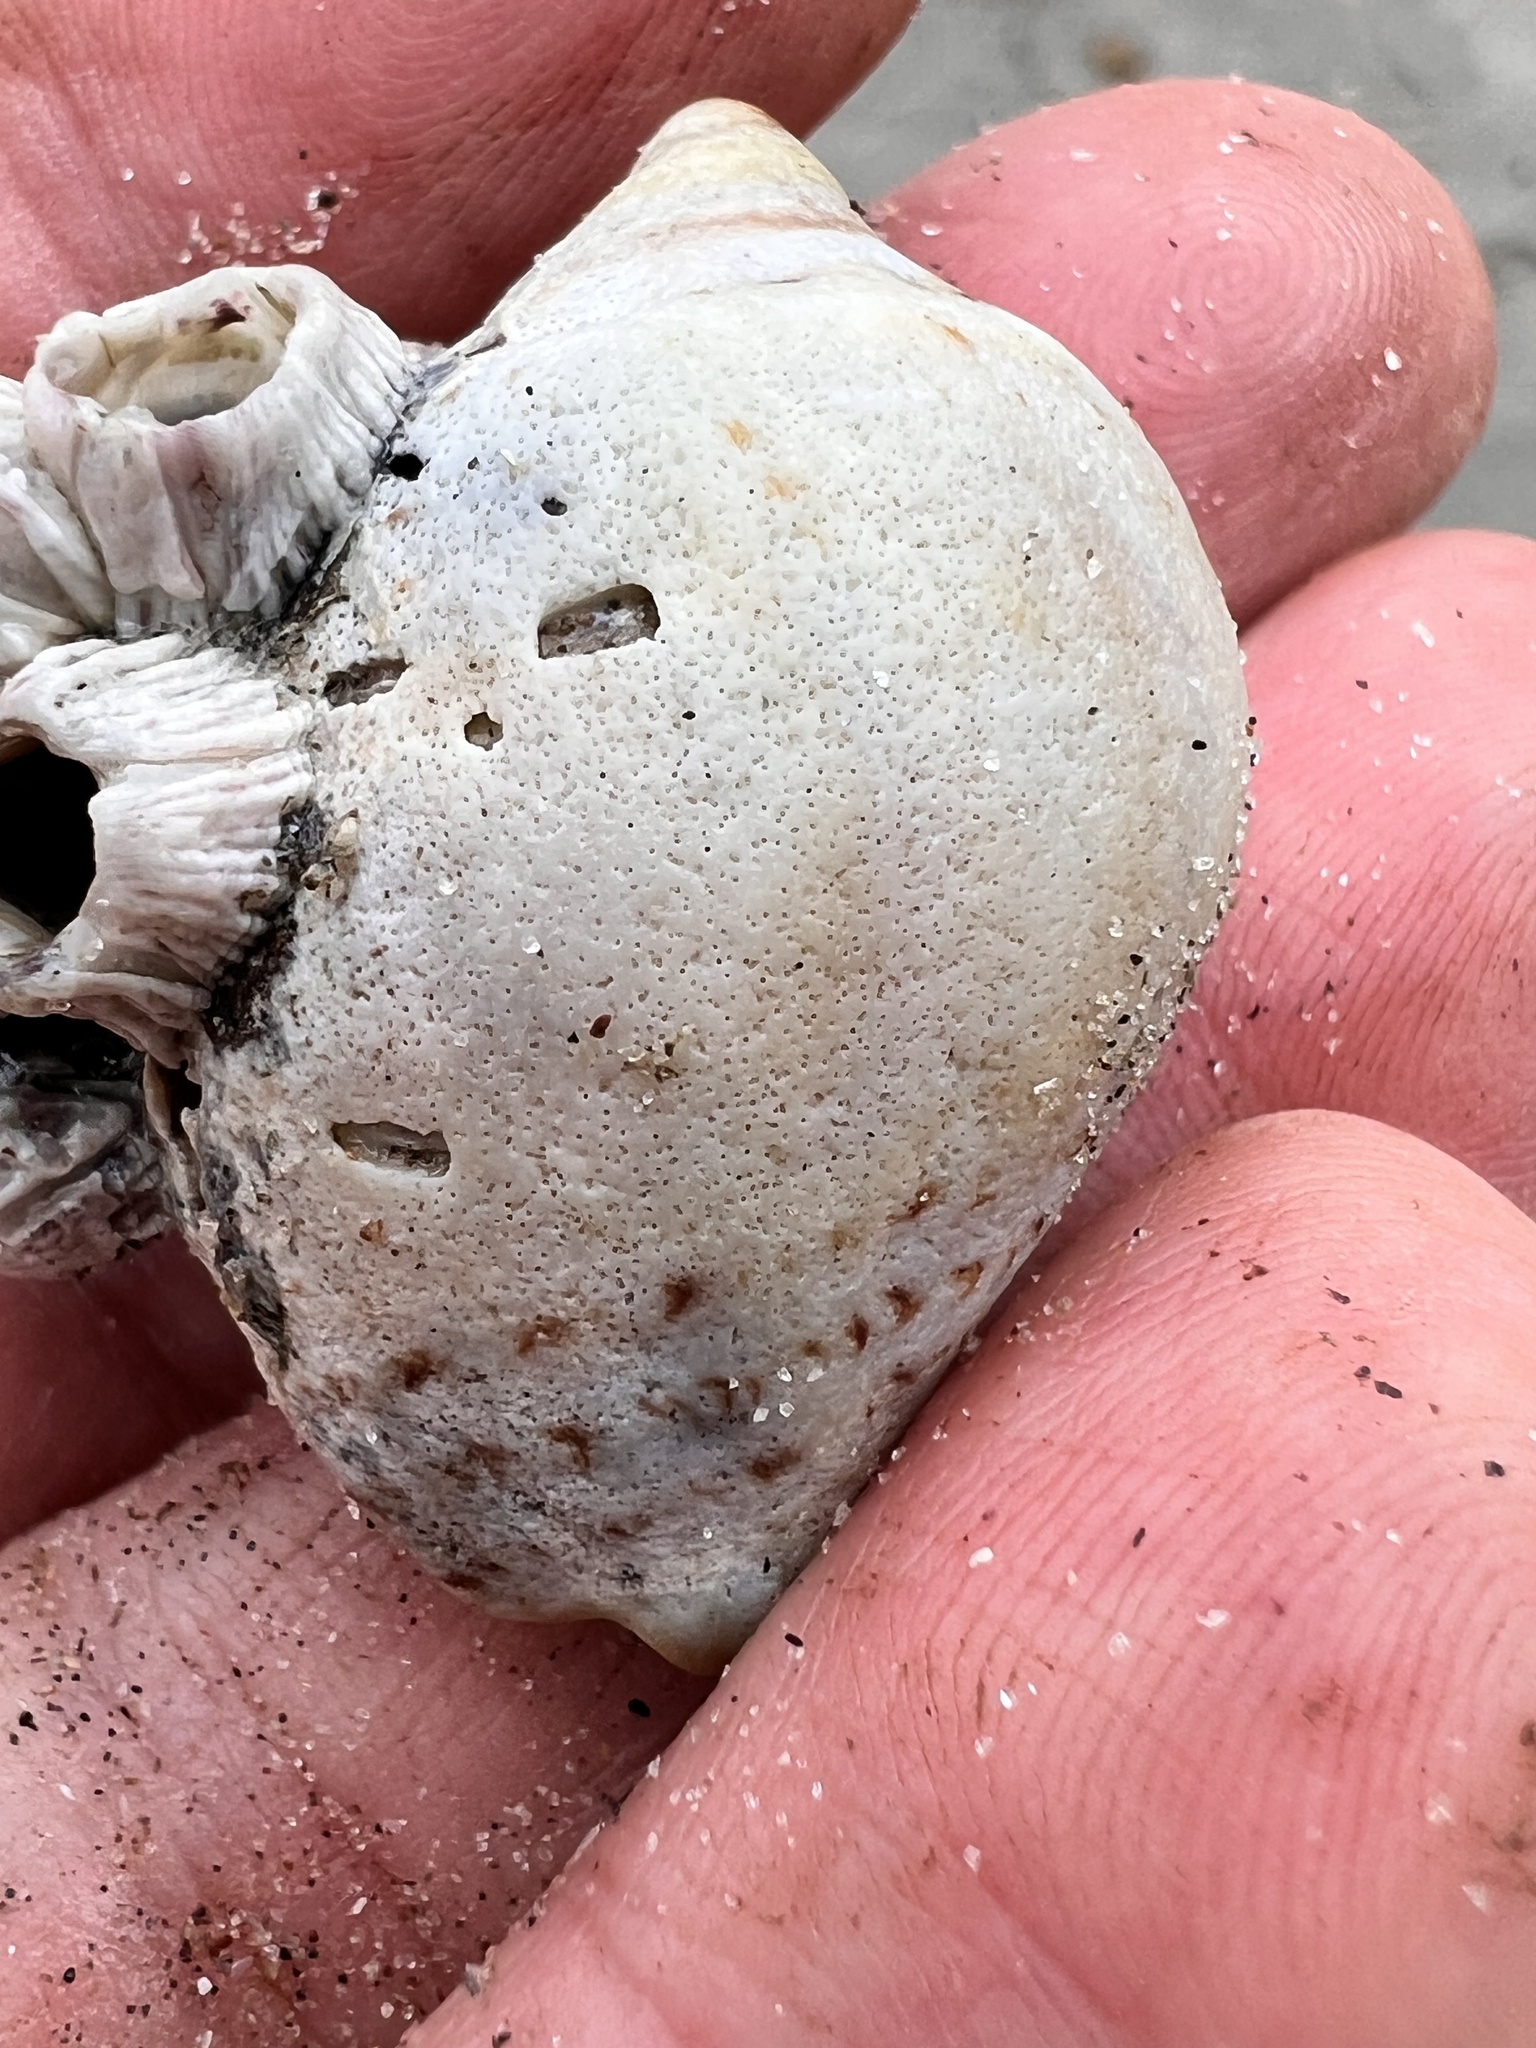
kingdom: Animalia
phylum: Mollusca
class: Gastropoda
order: Neogastropoda
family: Cominellidae
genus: Cominella
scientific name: Cominella adspersa
